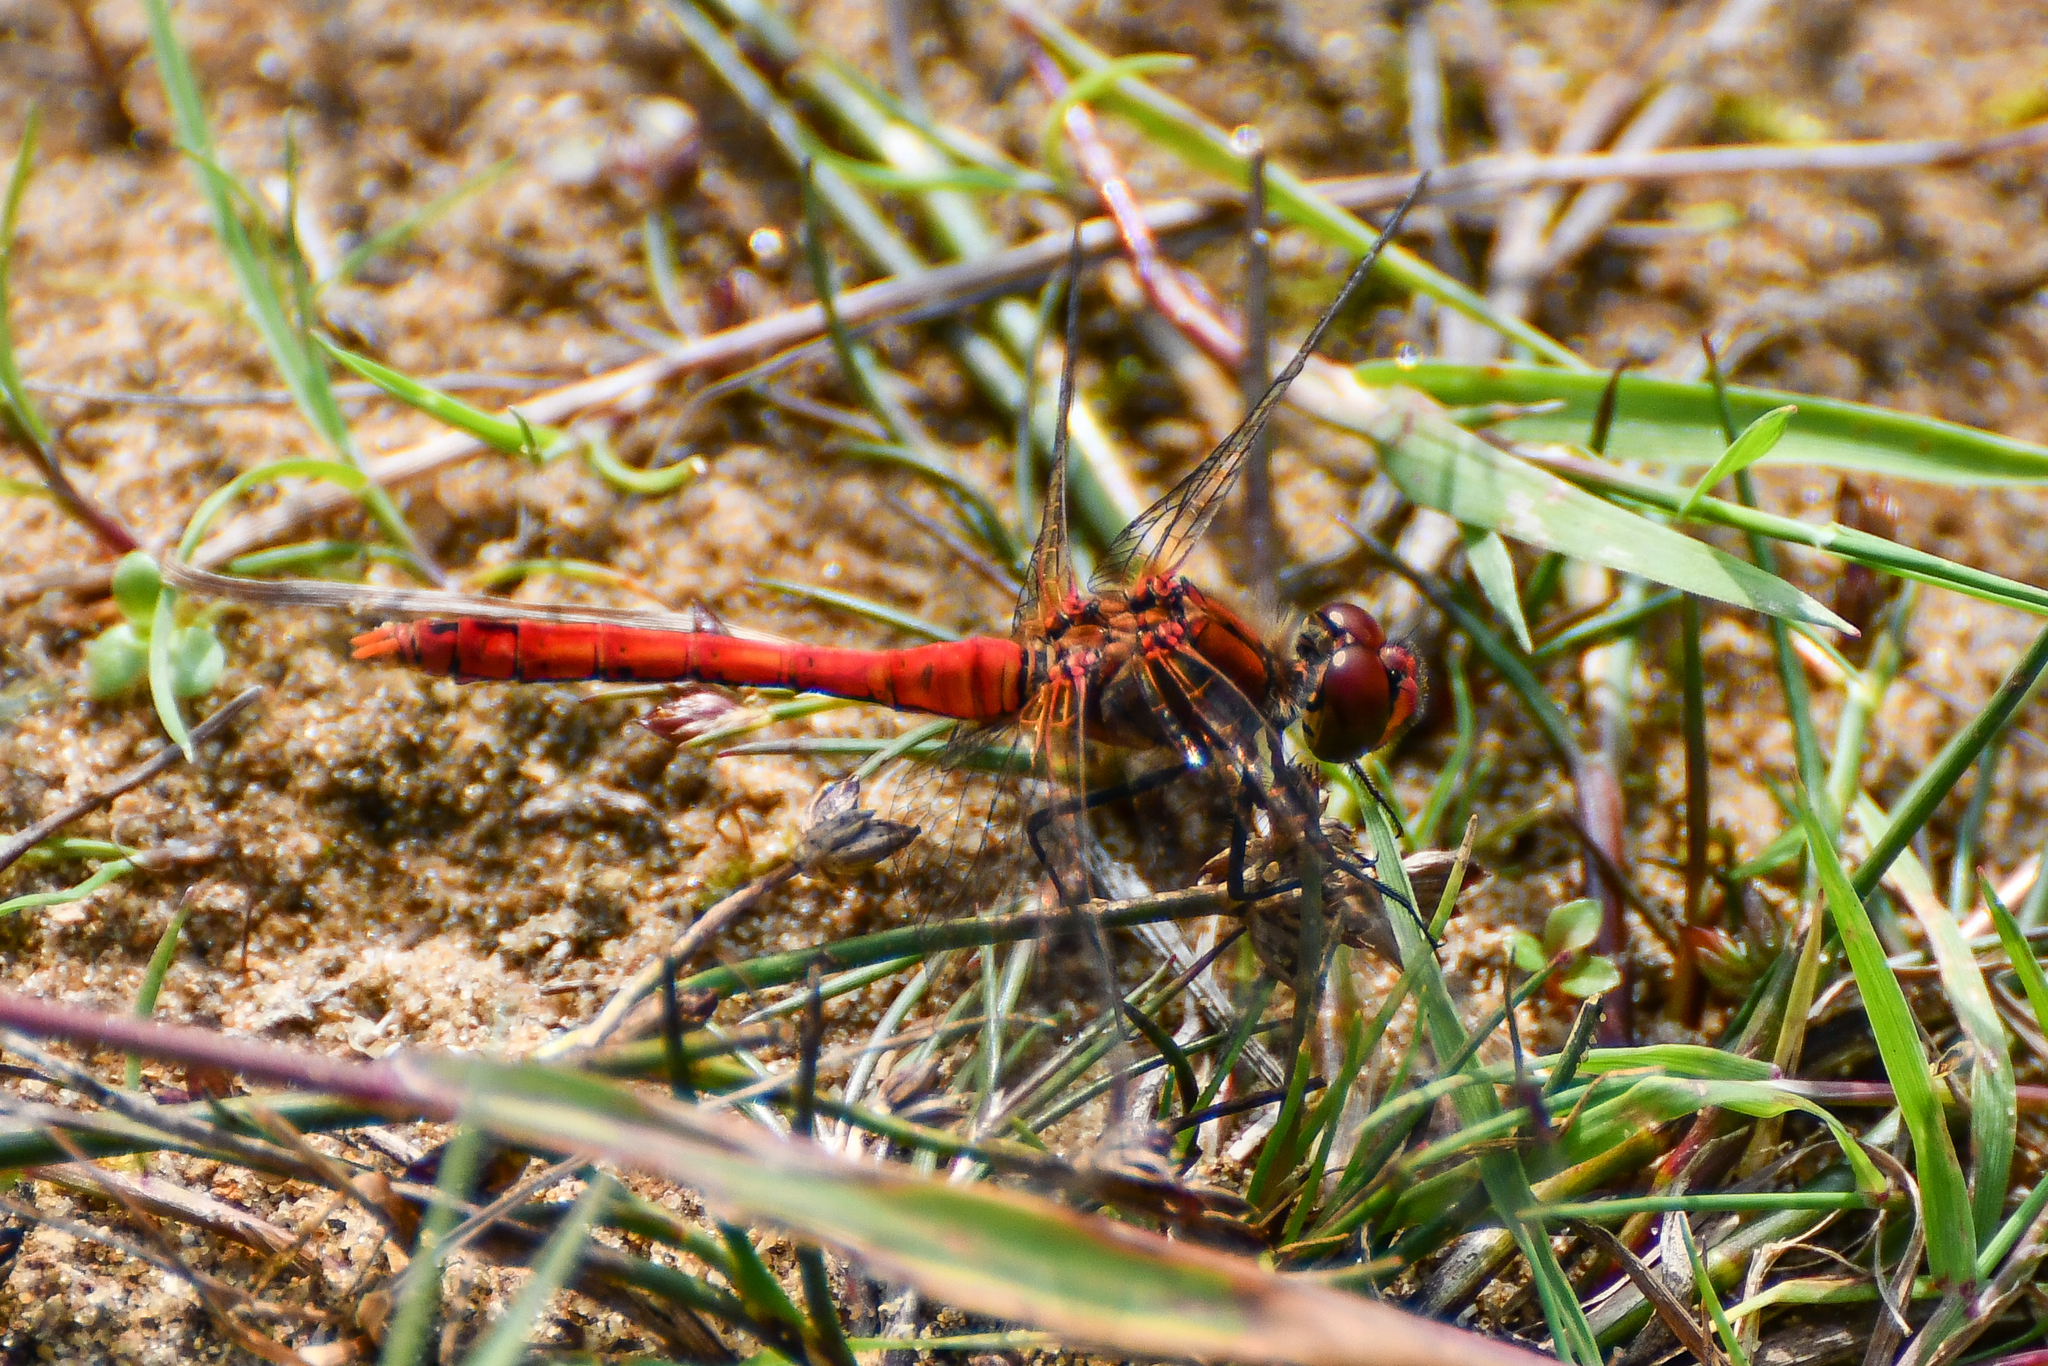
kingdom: Animalia
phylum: Arthropoda
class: Insecta
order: Odonata
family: Libellulidae
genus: Sympetrum
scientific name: Sympetrum sanguineum
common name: Ruddy darter
